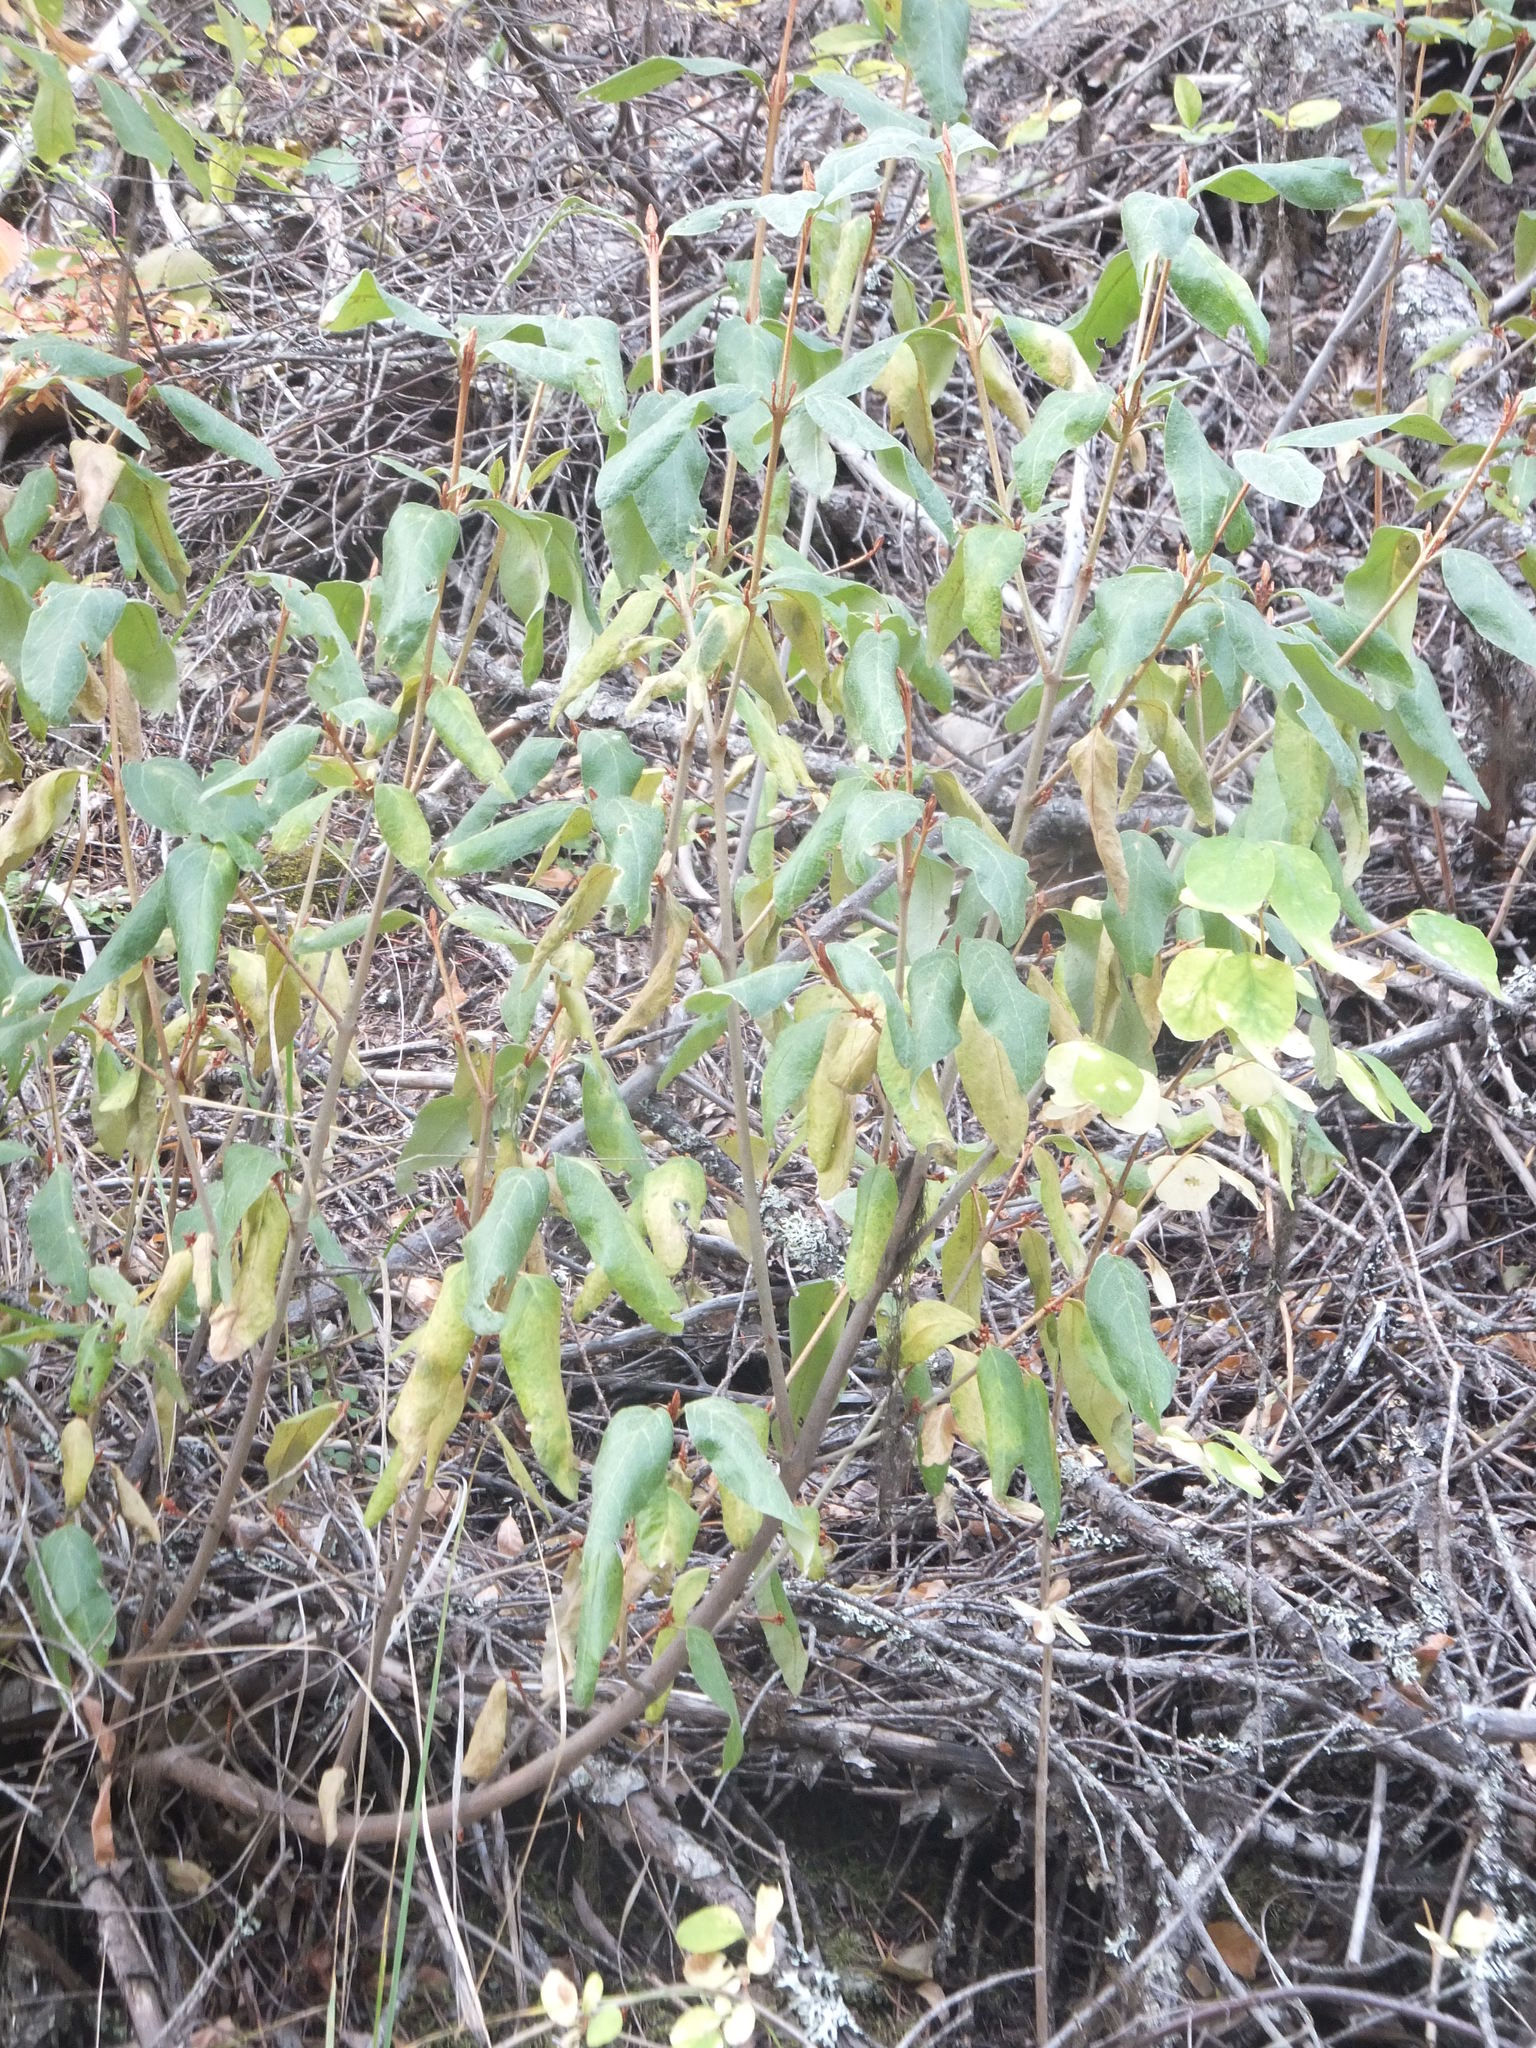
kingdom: Plantae
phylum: Tracheophyta
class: Magnoliopsida
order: Rosales
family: Elaeagnaceae
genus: Shepherdia
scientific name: Shepherdia canadensis
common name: Soapberry
